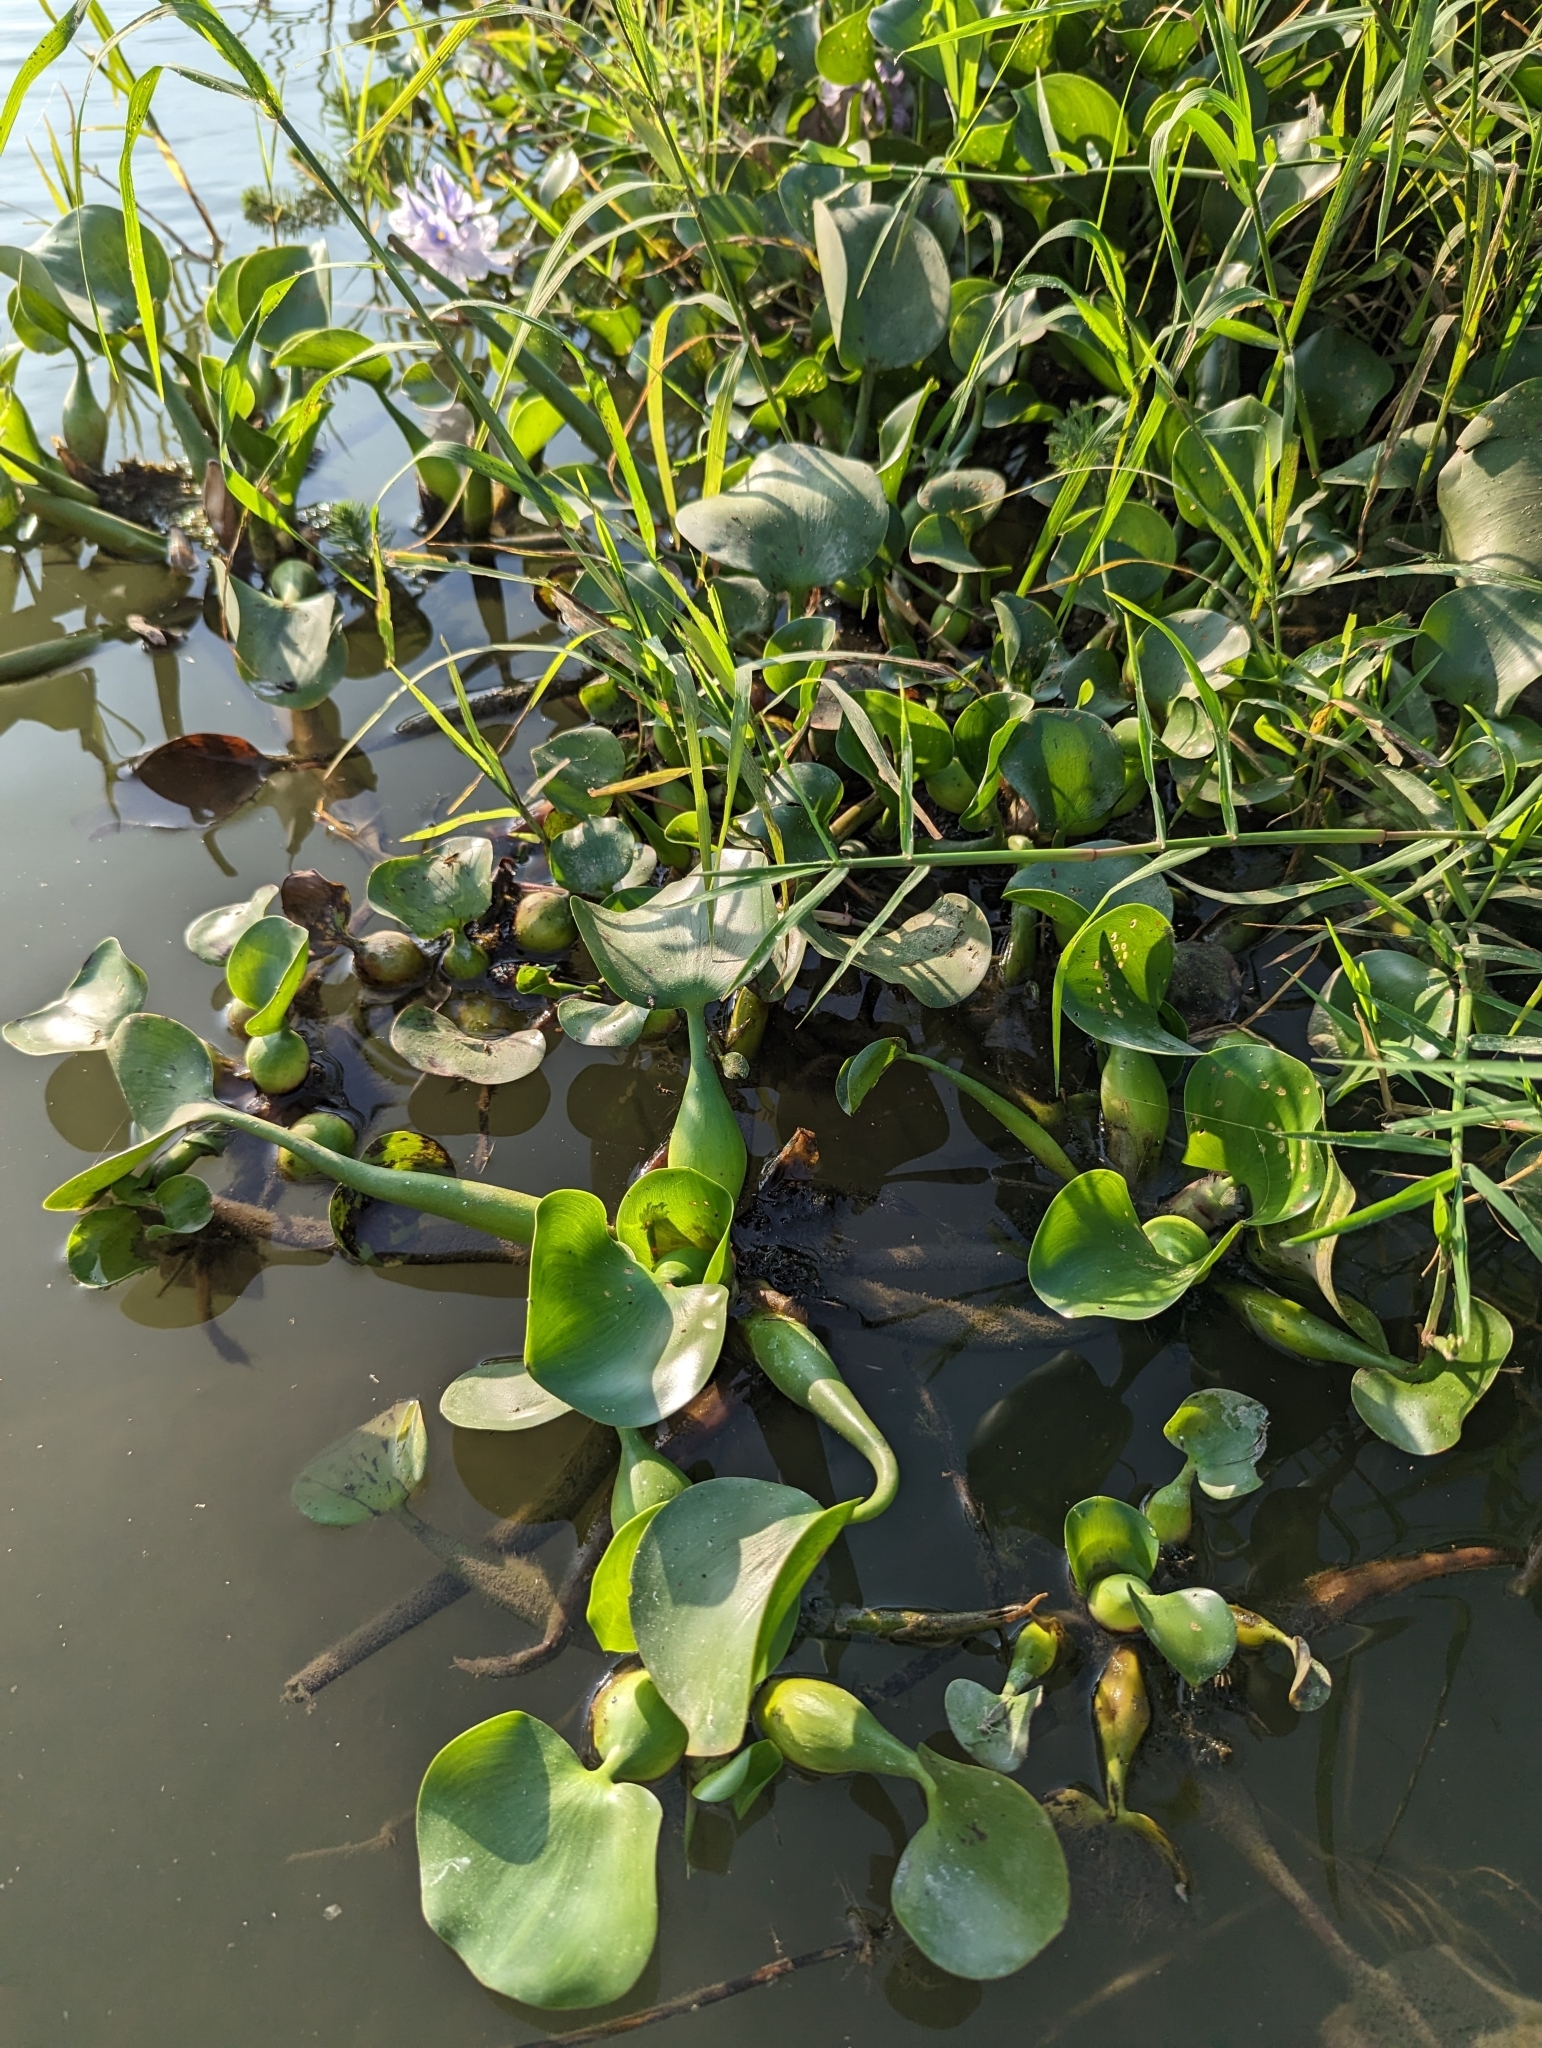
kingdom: Plantae
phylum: Tracheophyta
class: Liliopsida
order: Commelinales
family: Pontederiaceae
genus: Pontederia
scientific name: Pontederia crassipes
